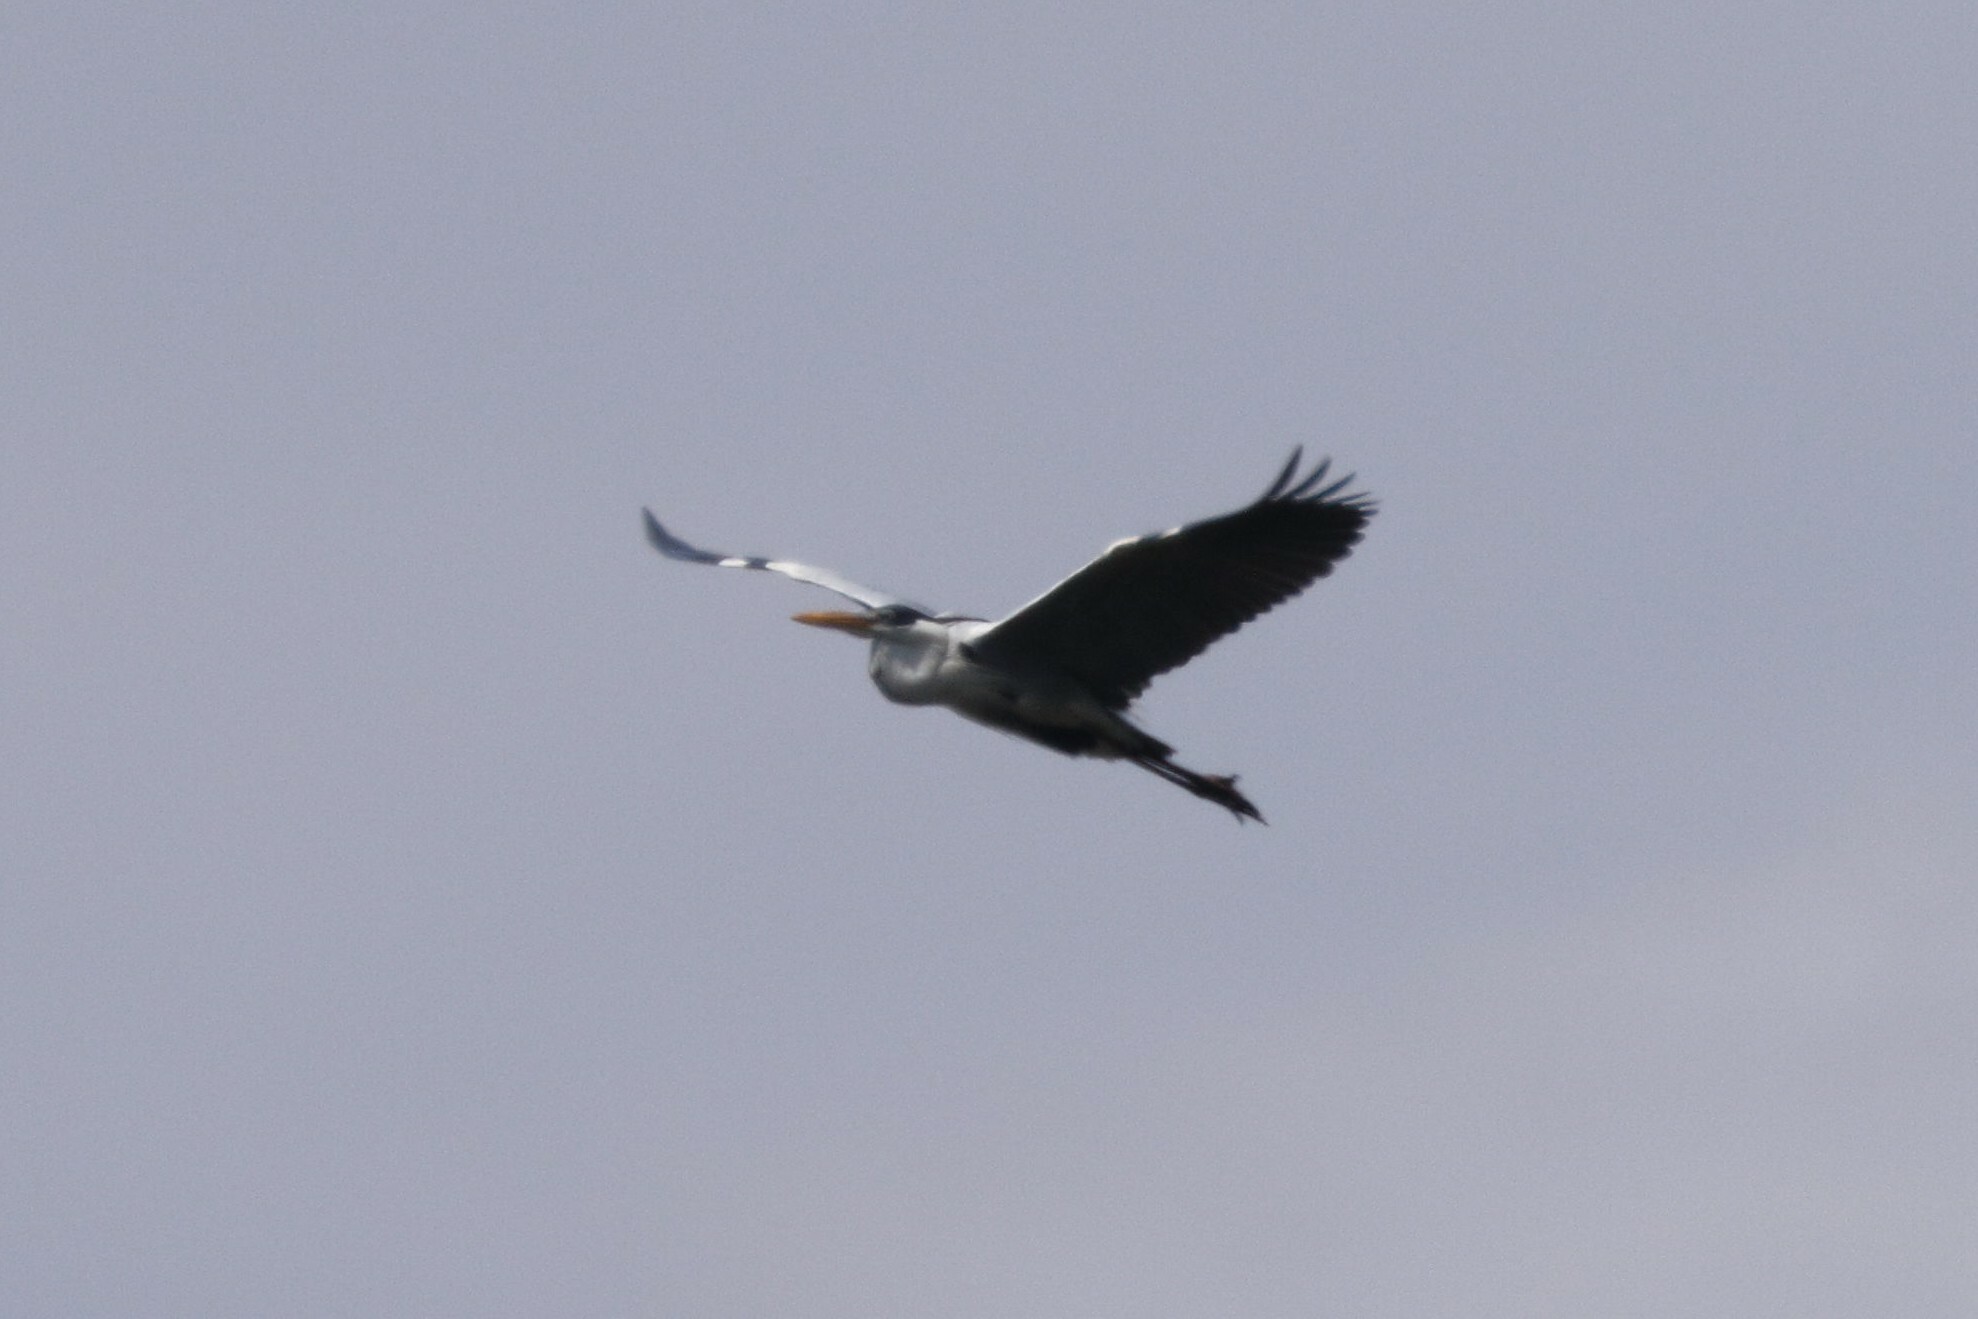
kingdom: Animalia
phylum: Chordata
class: Aves
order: Pelecaniformes
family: Ardeidae
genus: Ardea
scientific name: Ardea cocoi
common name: Cocoi heron
